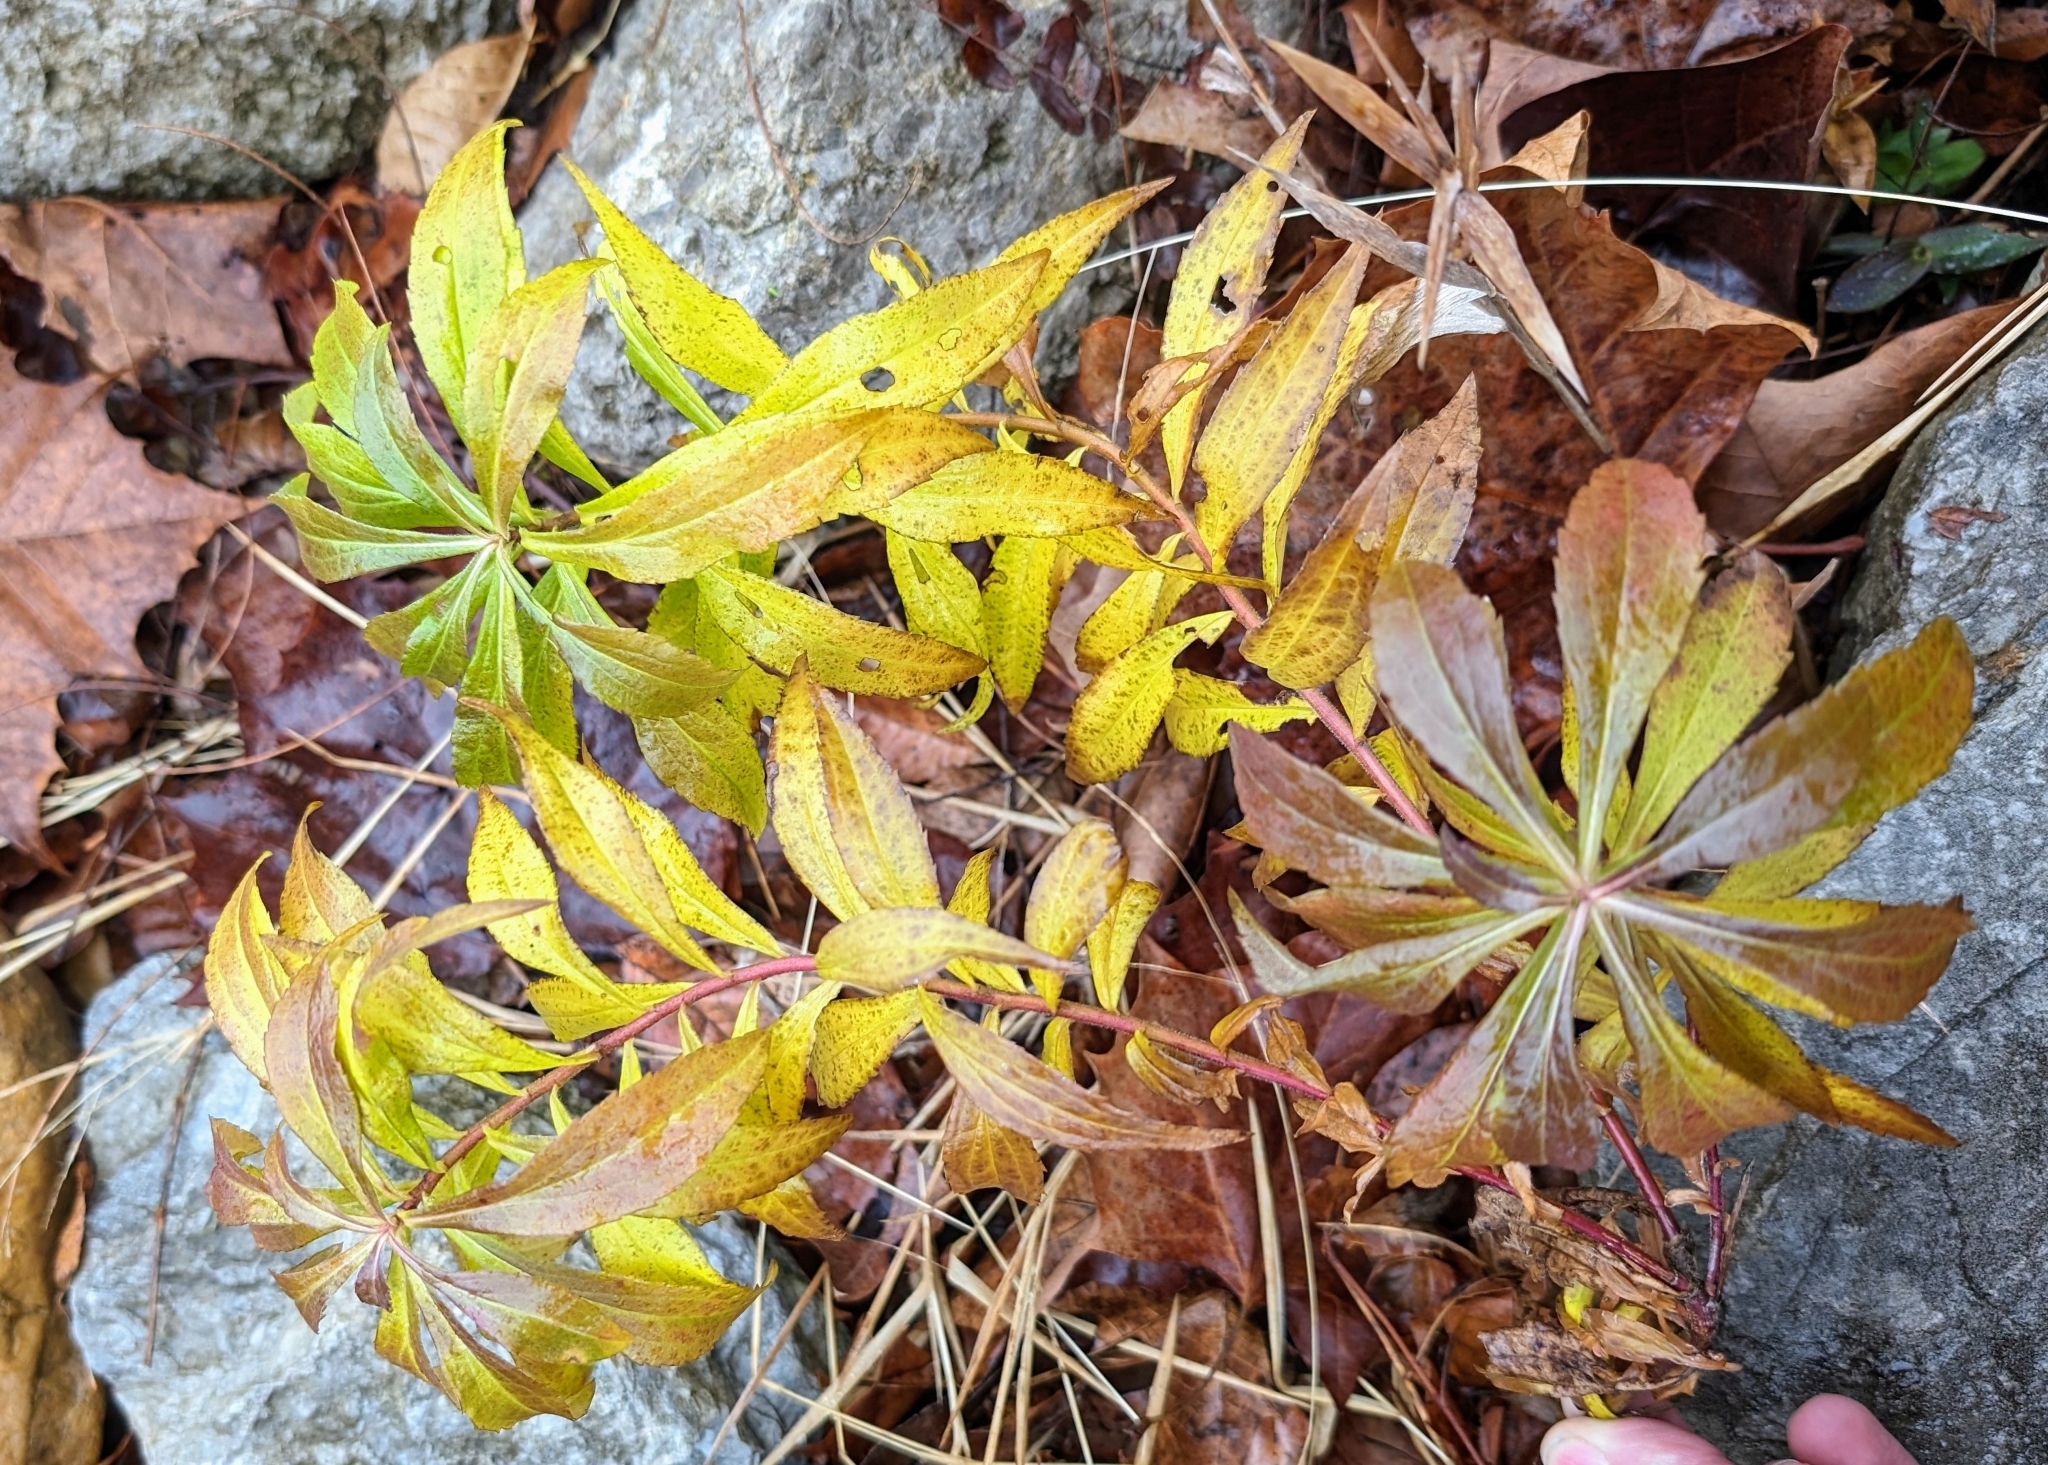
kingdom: Plantae
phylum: Tracheophyta
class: Magnoliopsida
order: Saxifragales
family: Penthoraceae
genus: Penthorum
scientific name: Penthorum sedoides
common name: Ditch stonecrop
